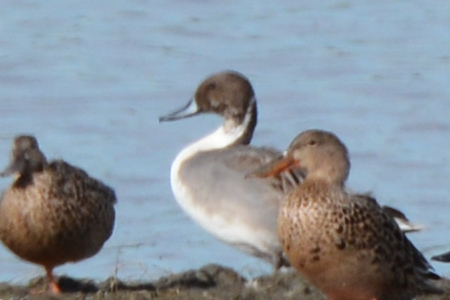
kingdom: Animalia
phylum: Chordata
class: Aves
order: Anseriformes
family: Anatidae
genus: Anas
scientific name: Anas acuta
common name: Northern pintail
